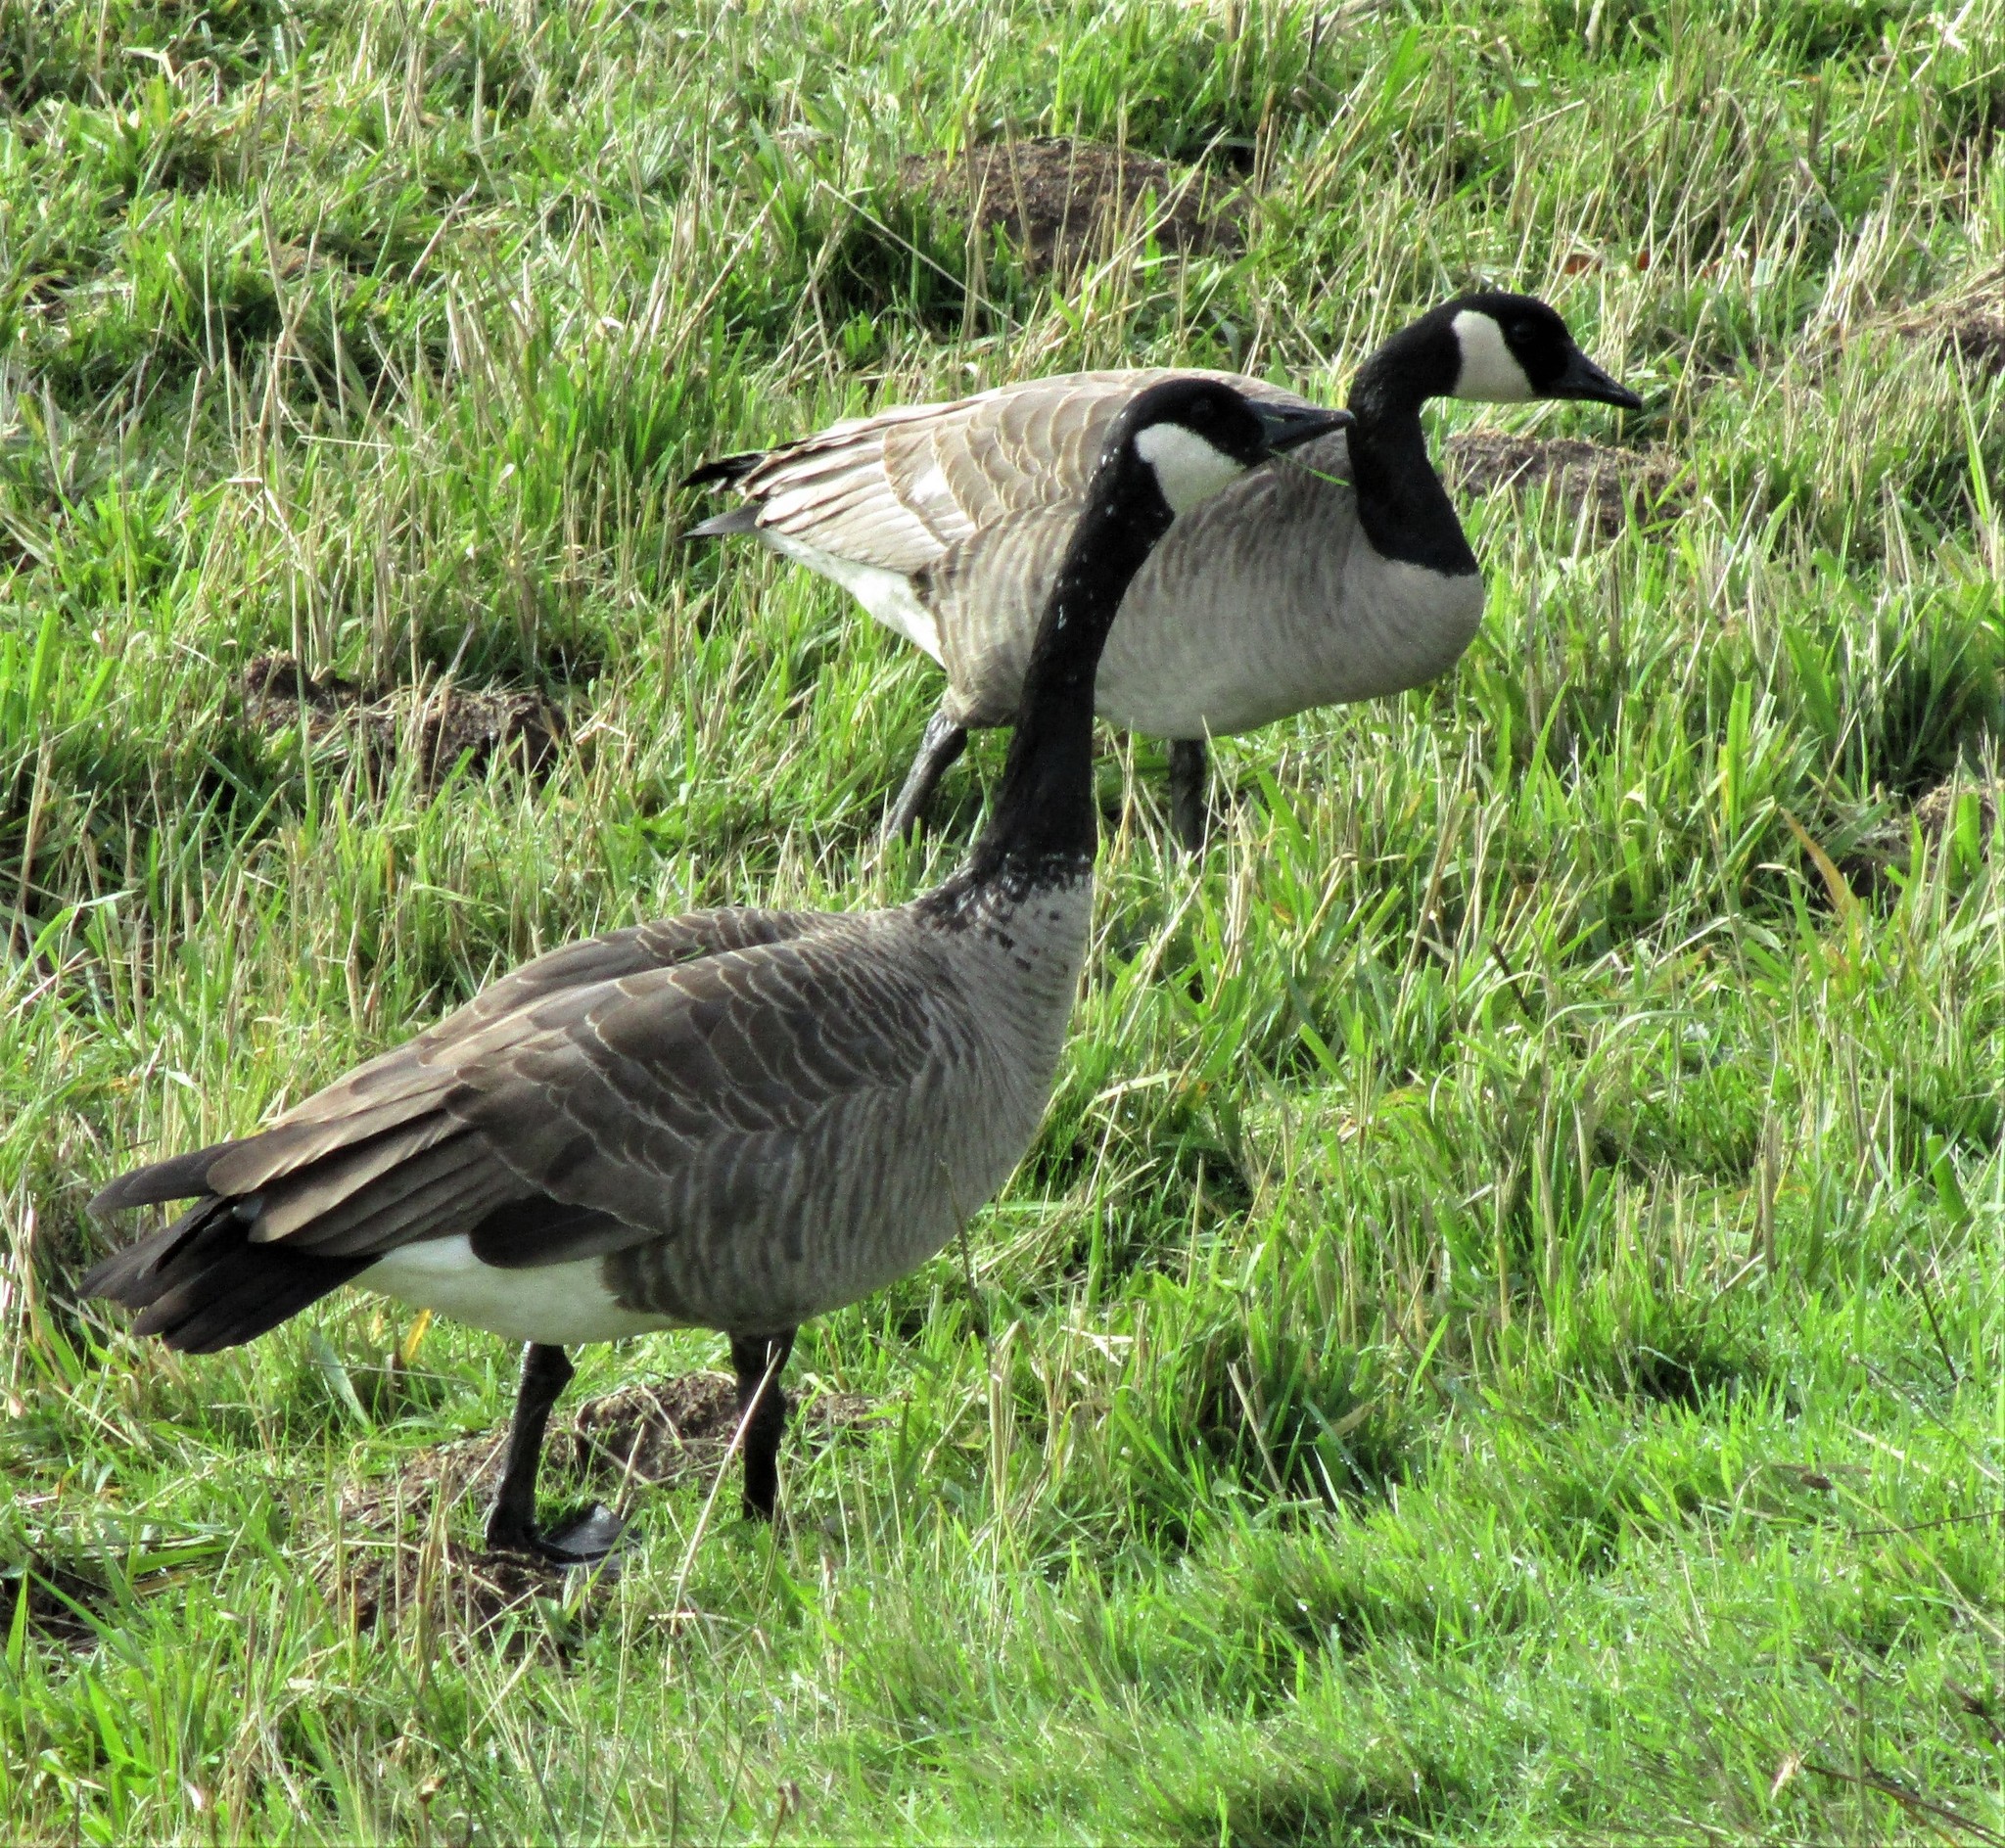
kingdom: Animalia
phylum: Chordata
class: Aves
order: Anseriformes
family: Anatidae
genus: Branta
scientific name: Branta canadensis
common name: Canada goose
